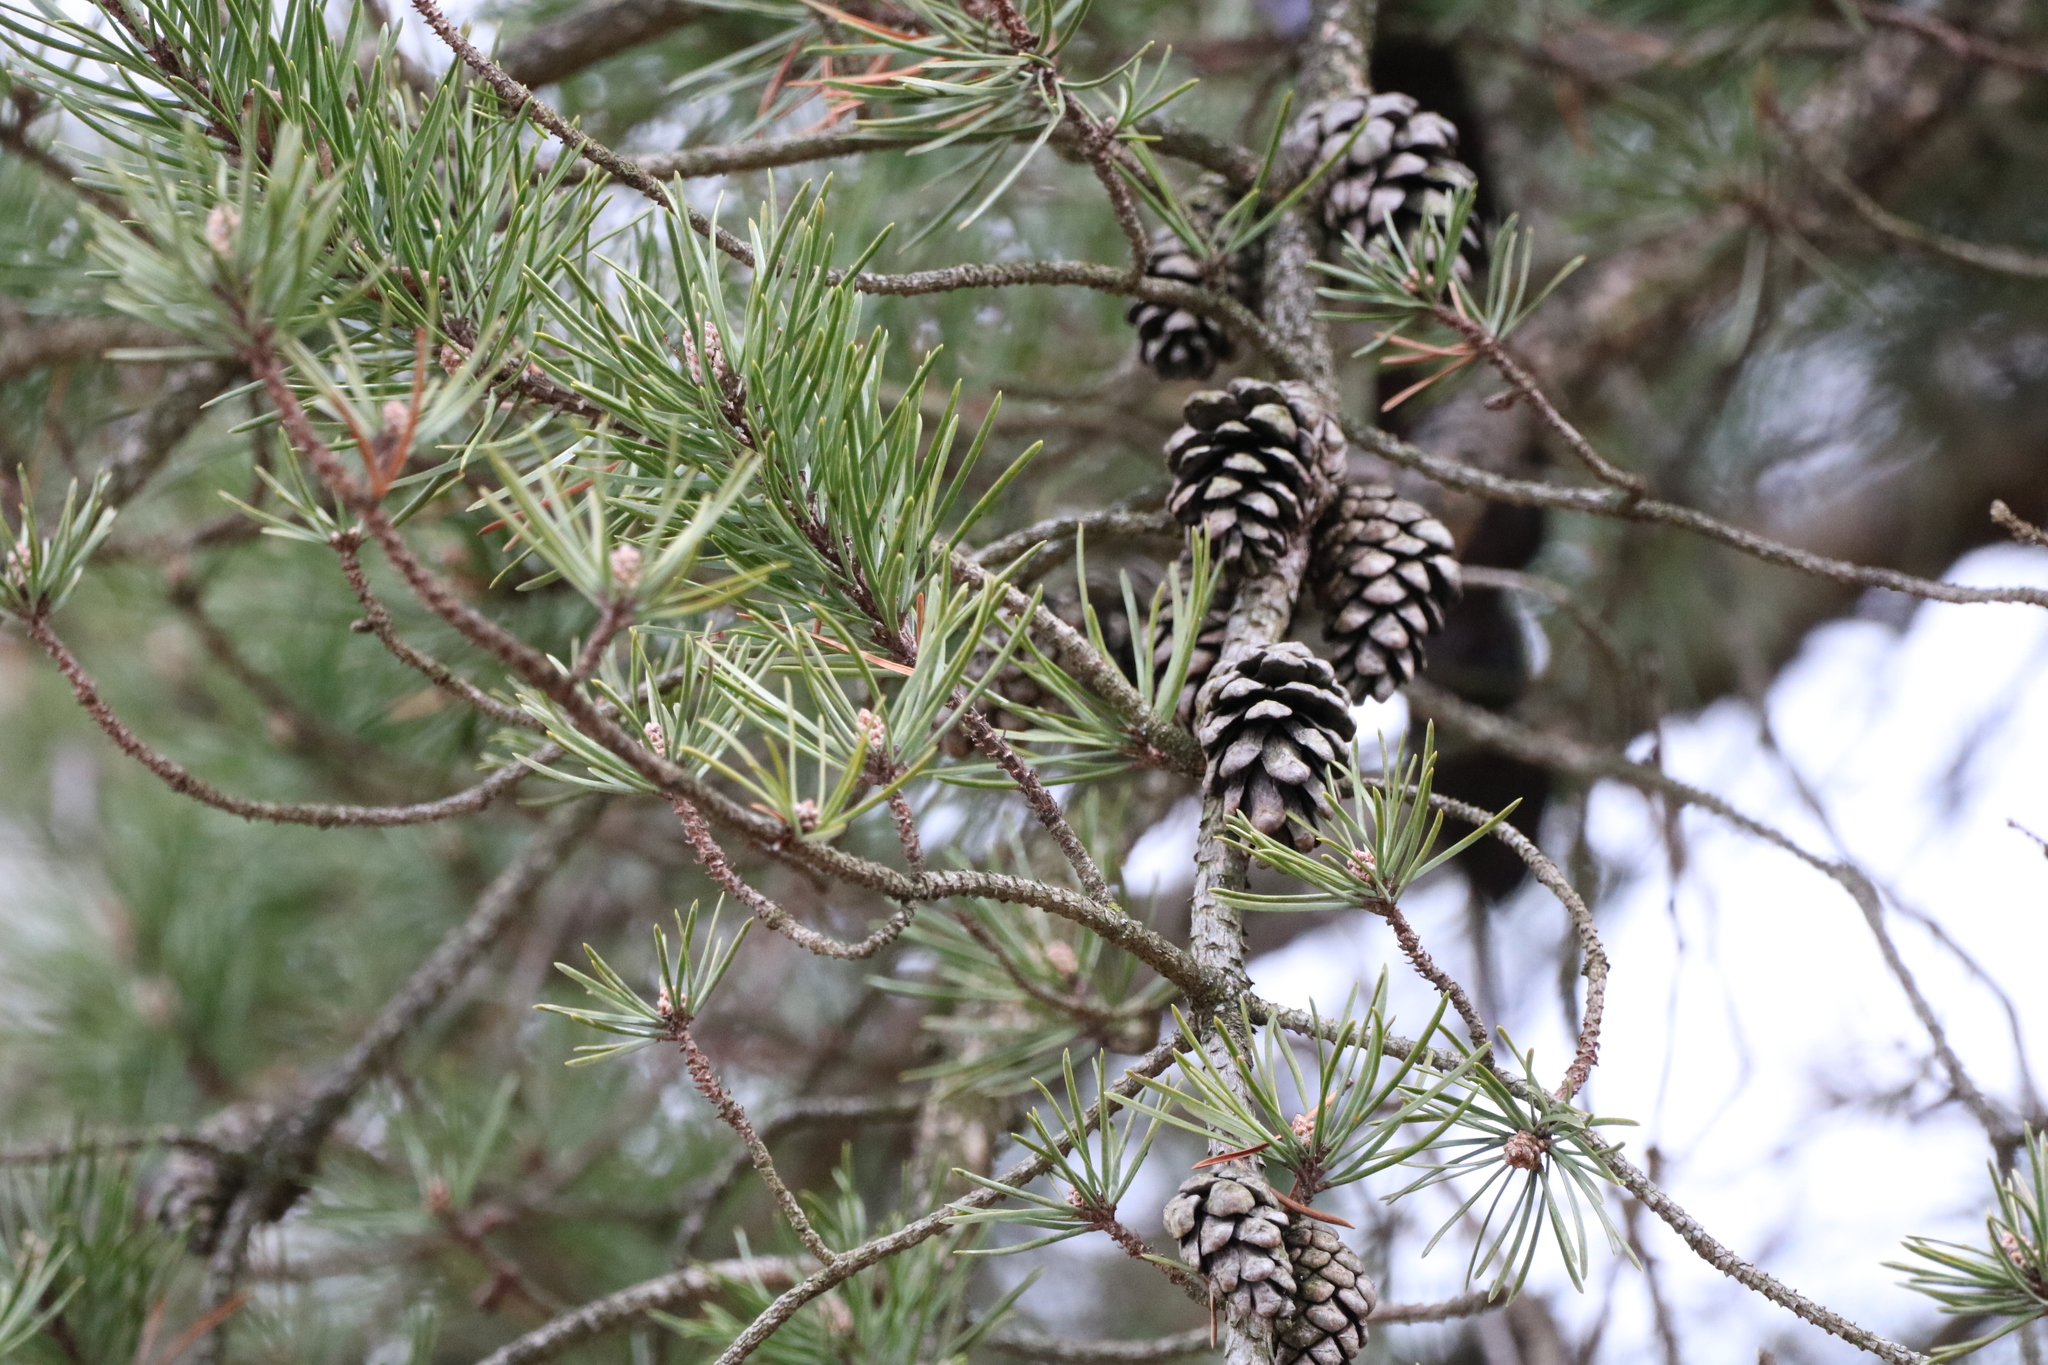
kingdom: Plantae
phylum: Tracheophyta
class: Pinopsida
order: Pinales
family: Pinaceae
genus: Pinus
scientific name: Pinus banksiana
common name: Jack pine
